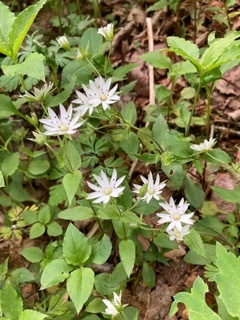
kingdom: Plantae
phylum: Tracheophyta
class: Magnoliopsida
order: Caryophyllales
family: Caryophyllaceae
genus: Stellaria
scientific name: Stellaria pubera
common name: Star chickweed
